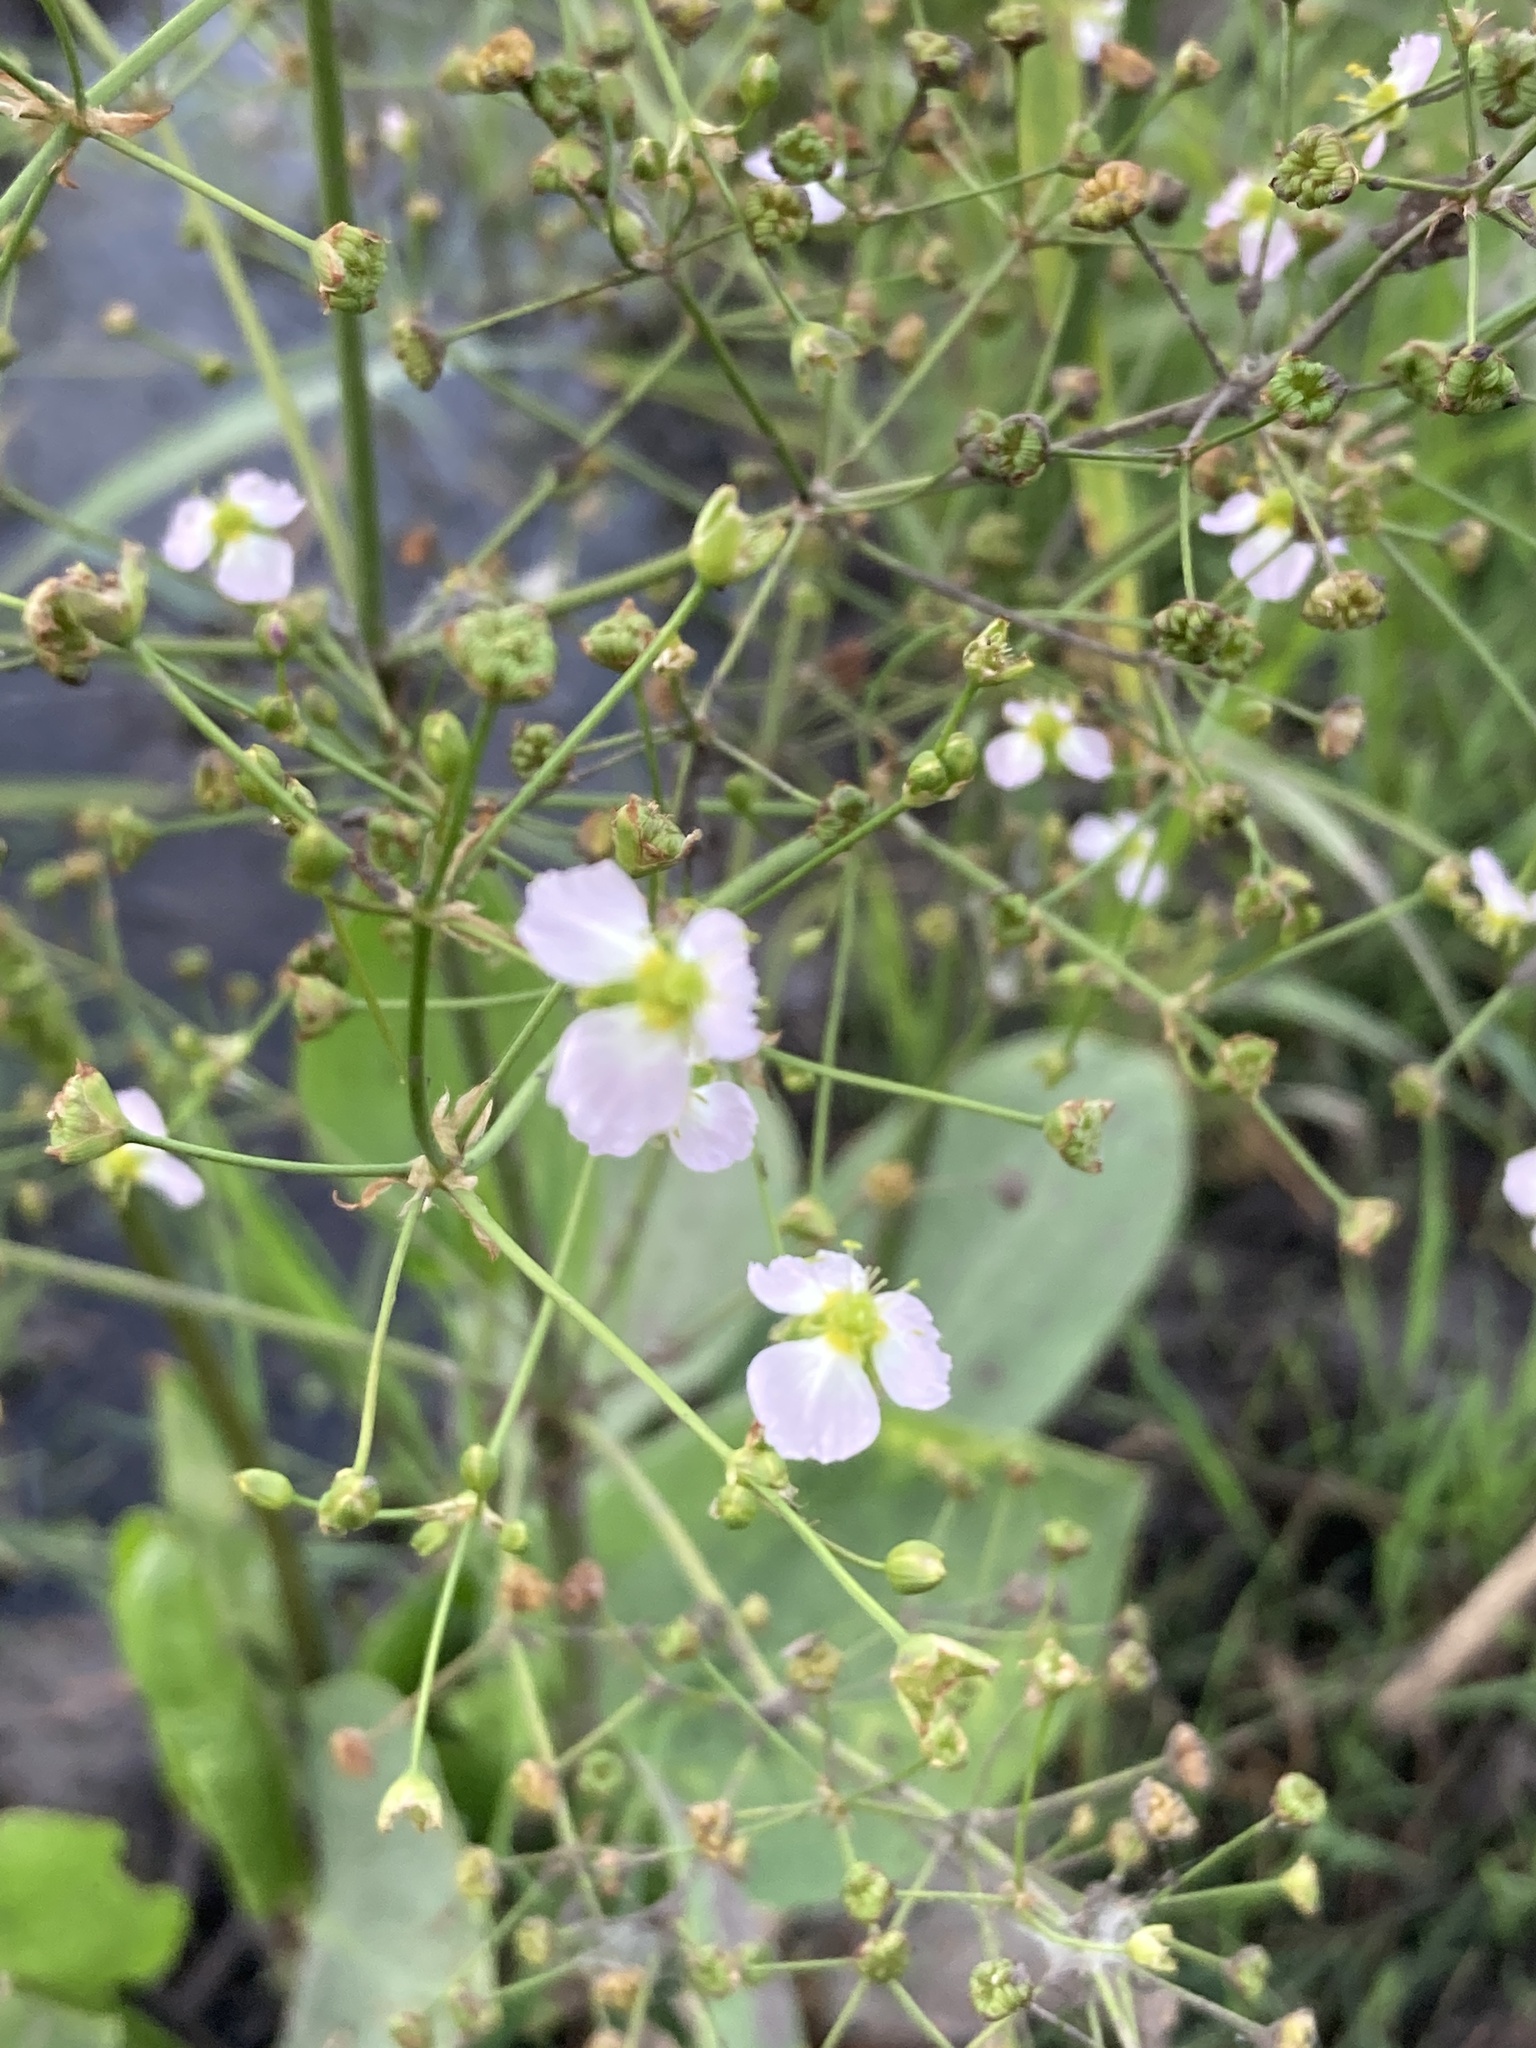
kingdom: Plantae
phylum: Tracheophyta
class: Liliopsida
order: Alismatales
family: Alismataceae
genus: Alisma
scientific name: Alisma plantago-aquatica
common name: Water-plantain
